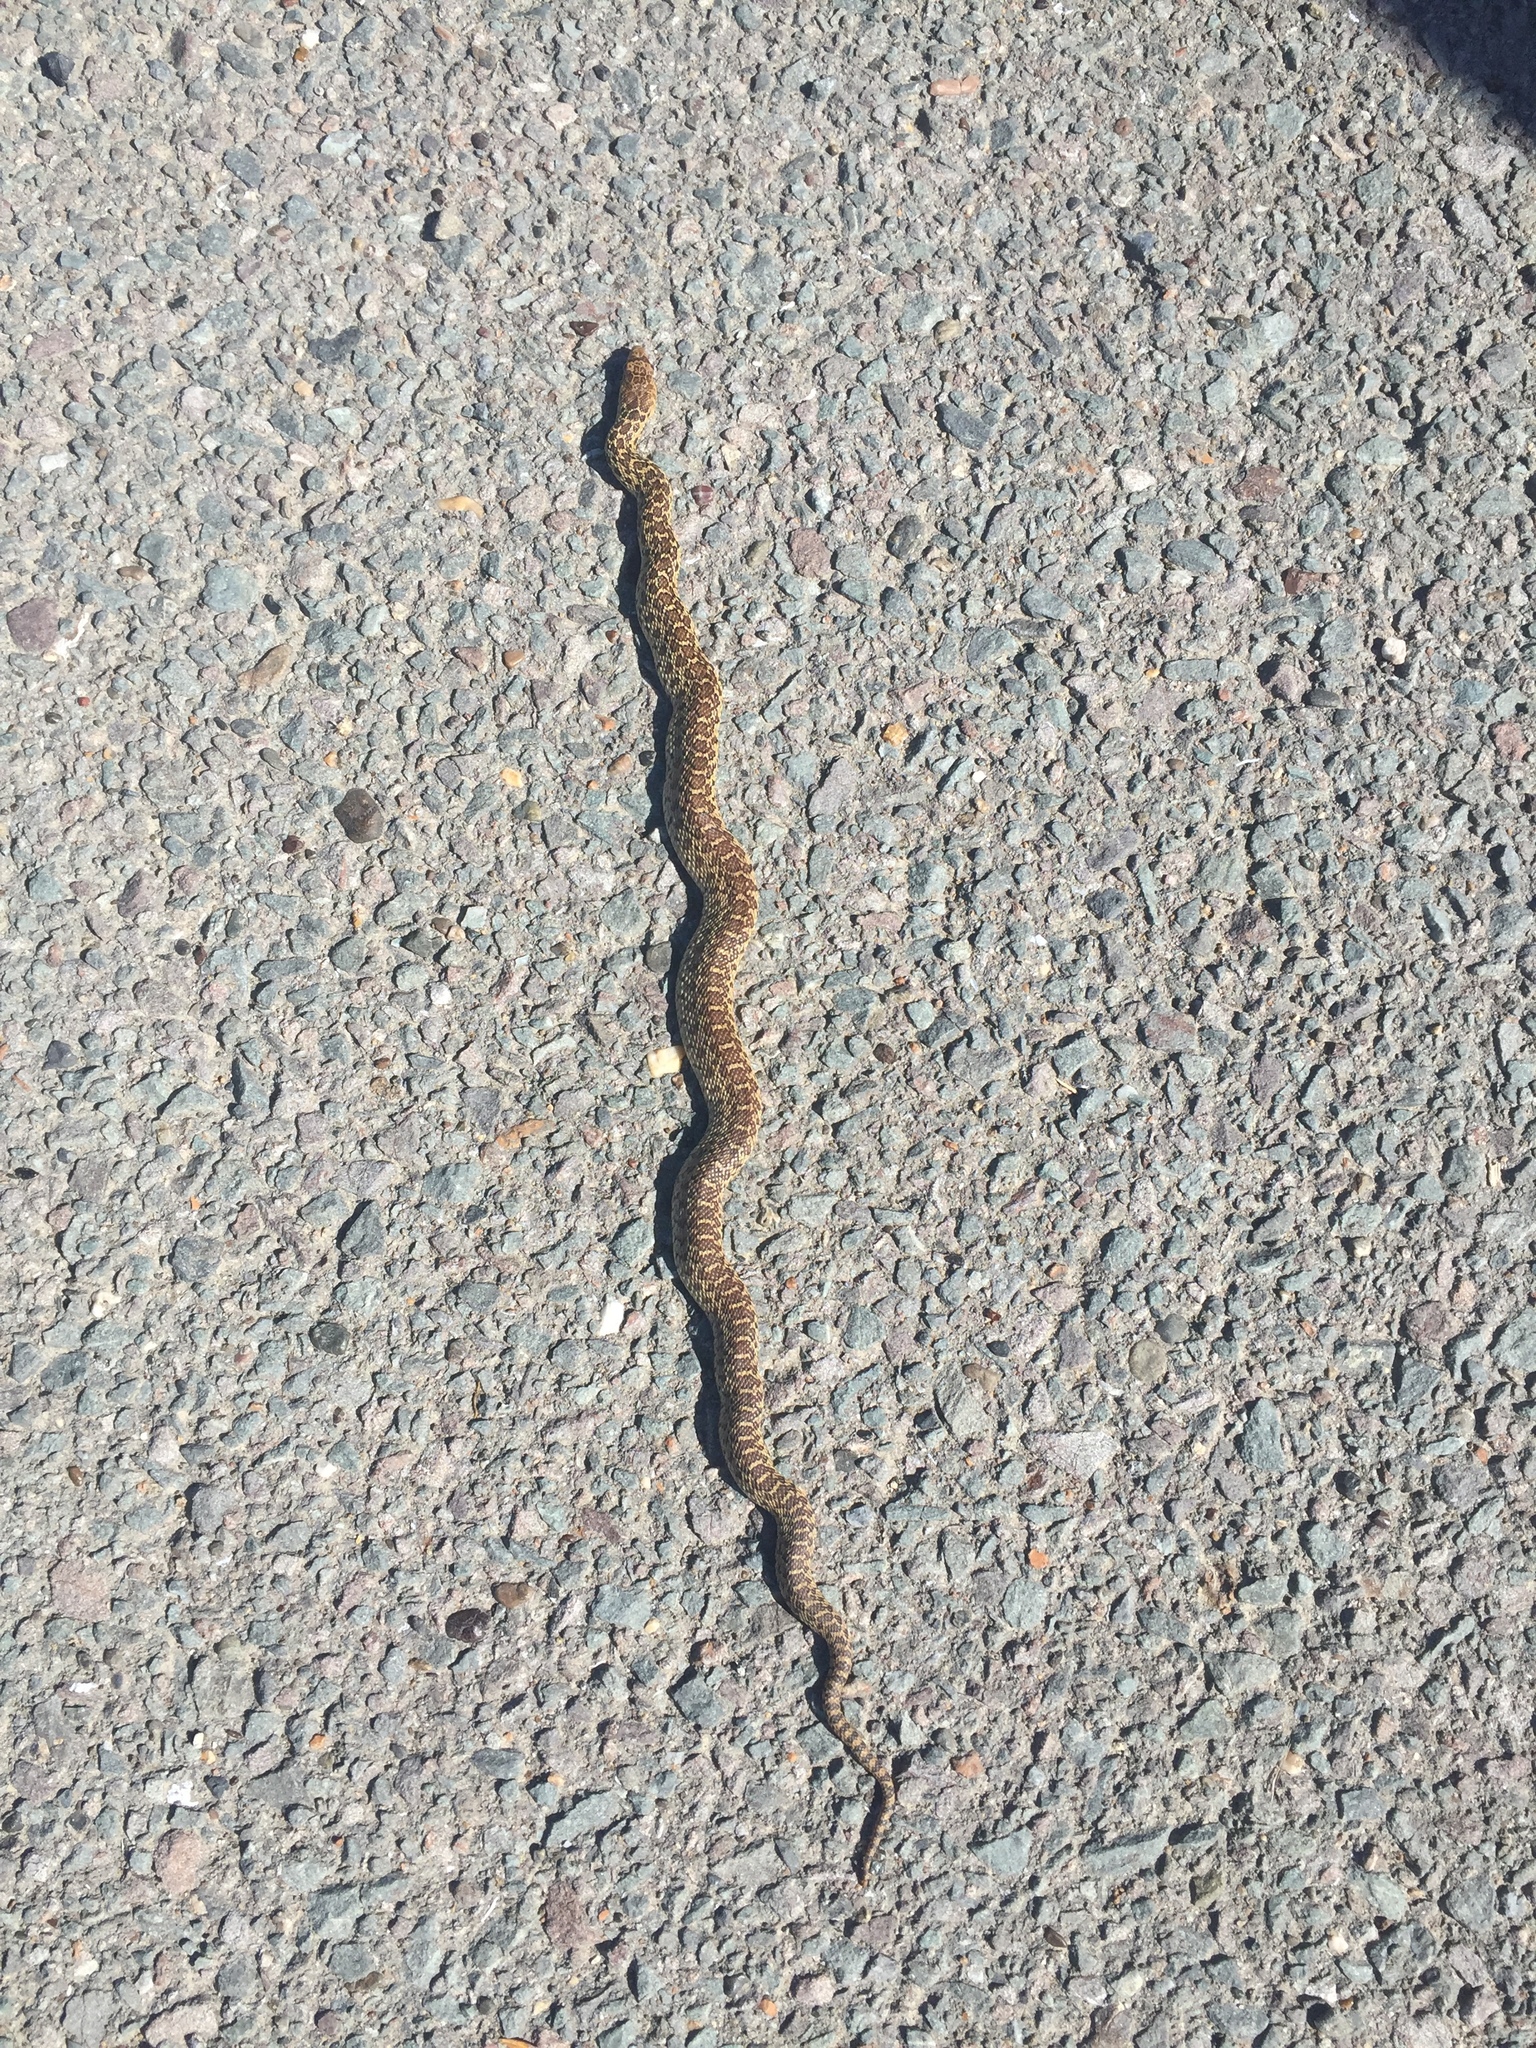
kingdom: Animalia
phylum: Chordata
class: Squamata
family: Colubridae
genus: Pituophis
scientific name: Pituophis catenifer
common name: Gopher snake
